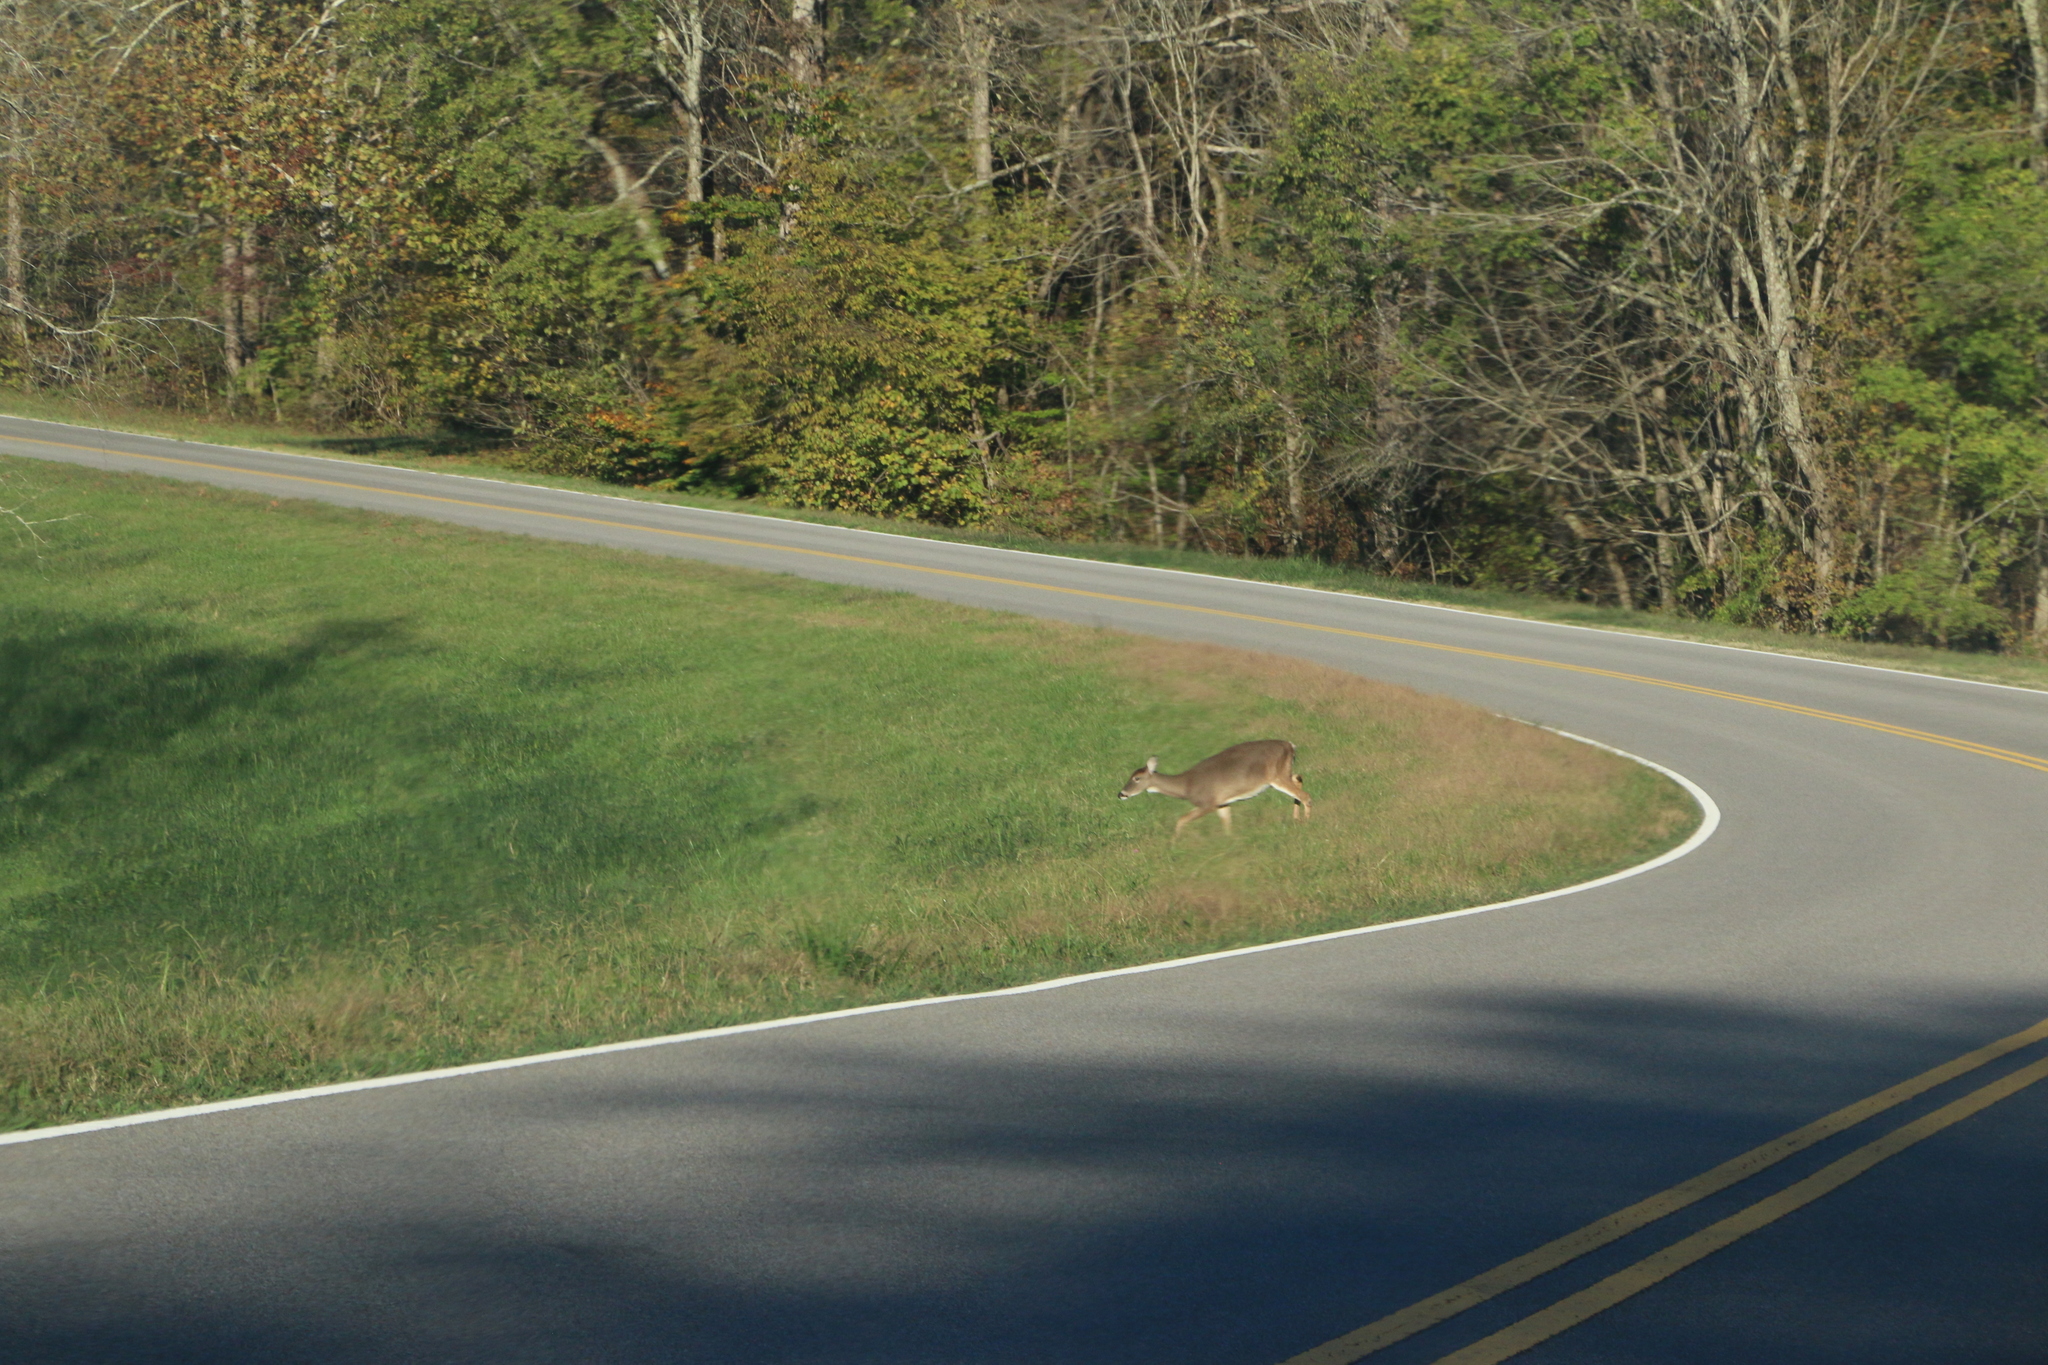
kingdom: Animalia
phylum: Chordata
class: Mammalia
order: Artiodactyla
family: Cervidae
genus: Odocoileus
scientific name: Odocoileus virginianus
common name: White-tailed deer
